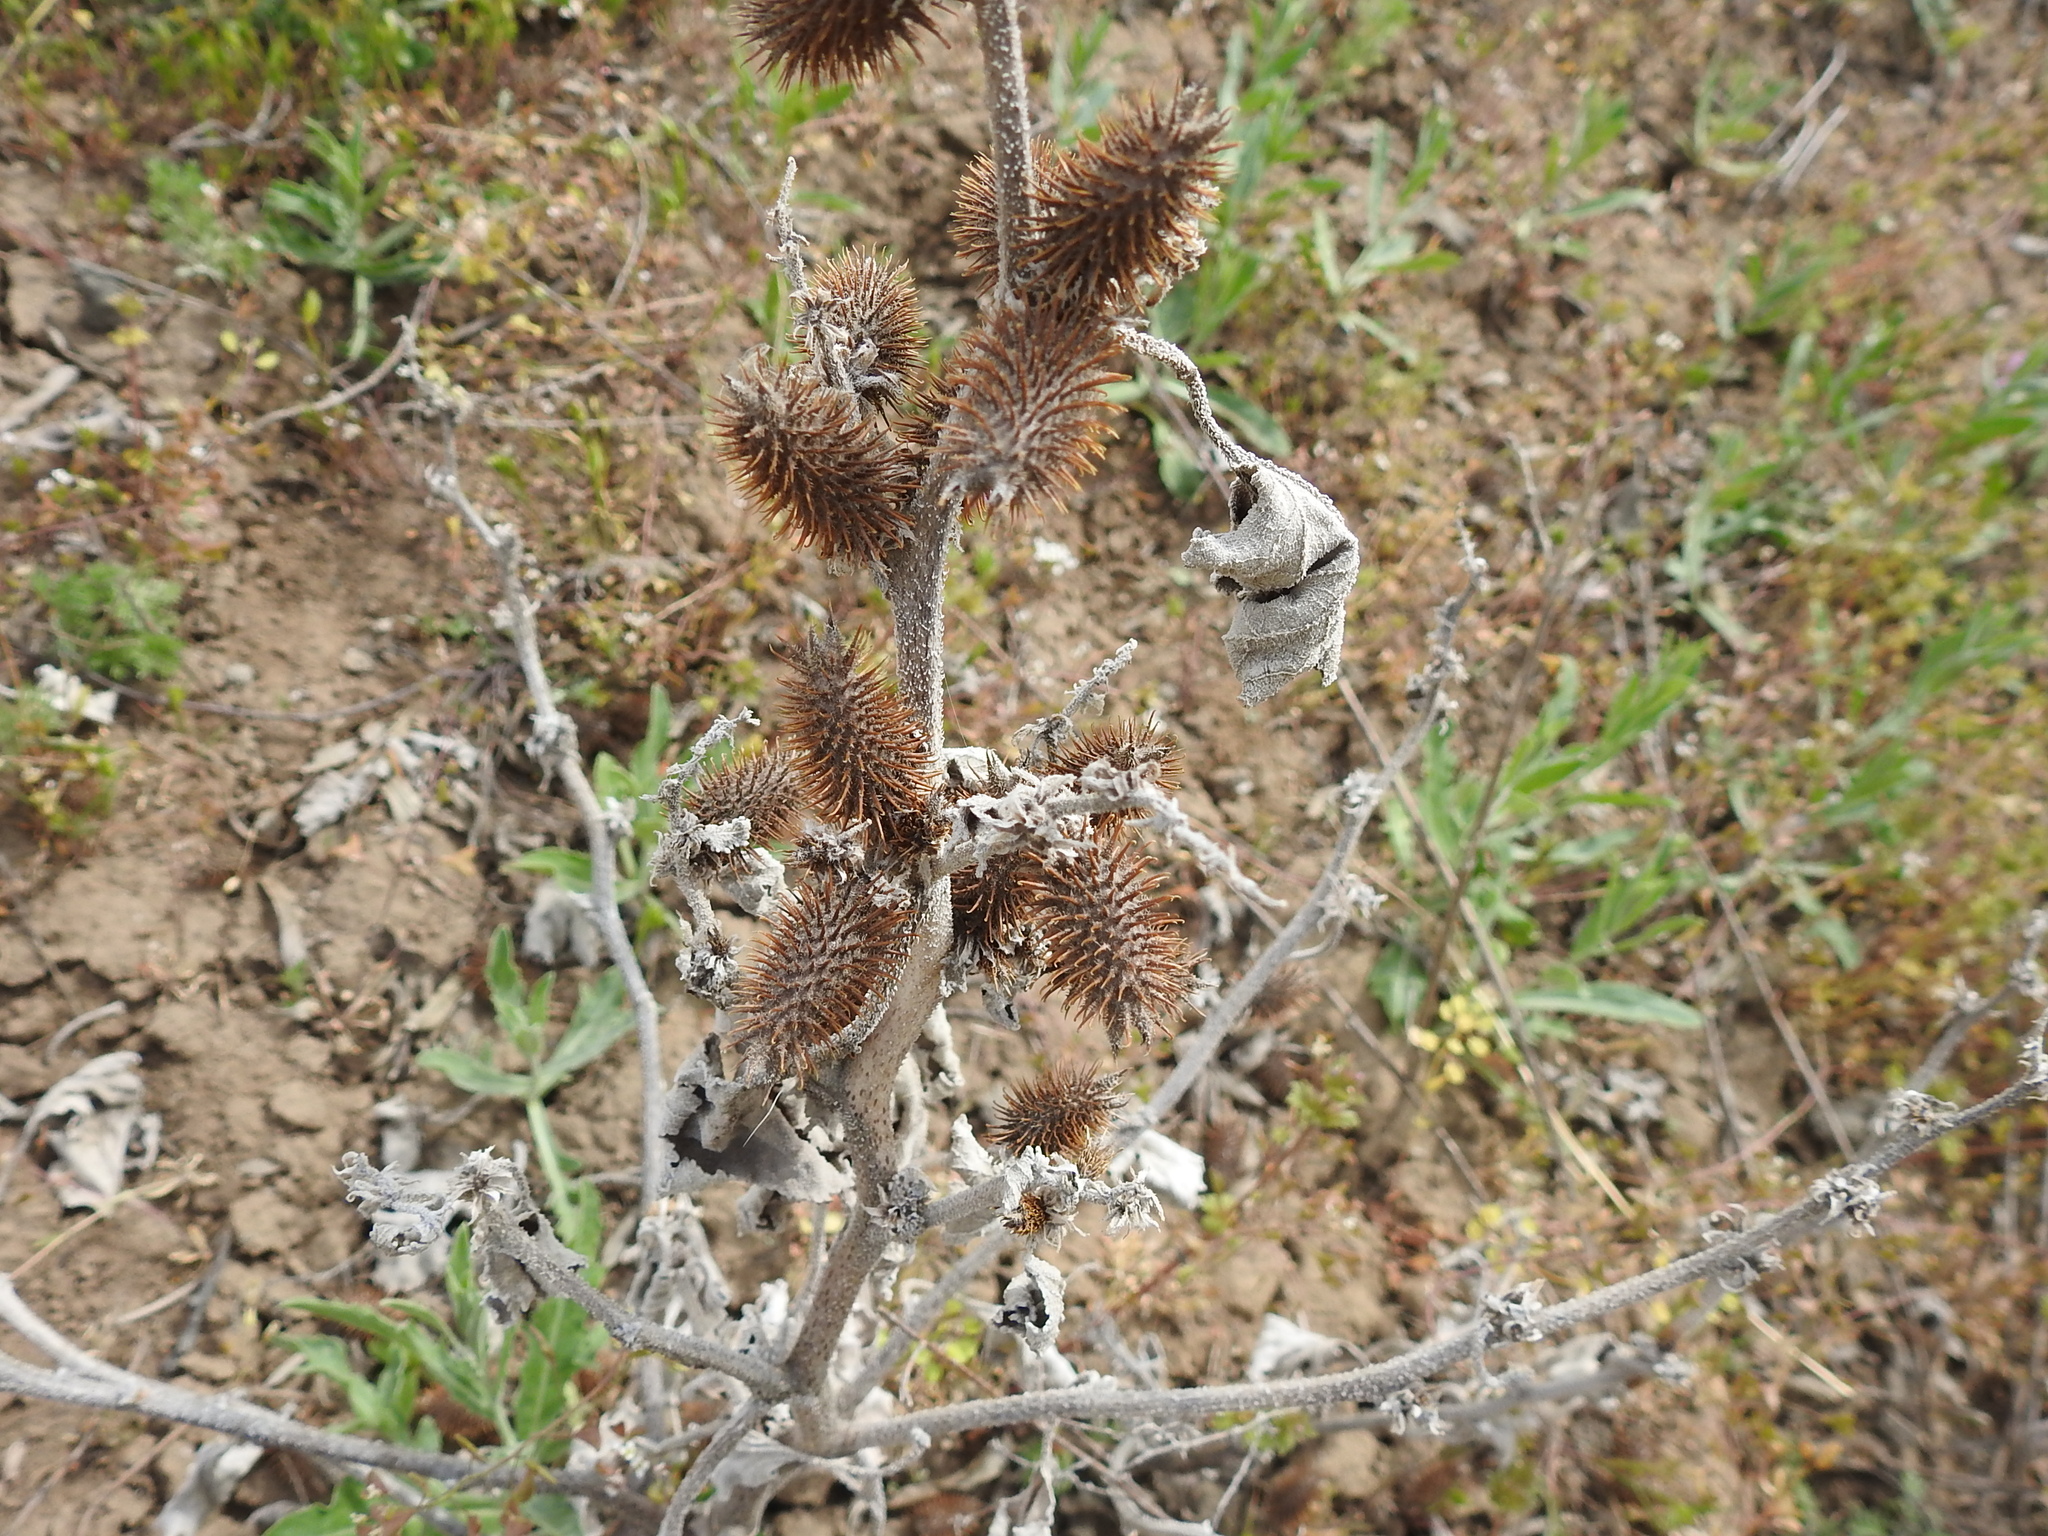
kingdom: Plantae
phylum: Tracheophyta
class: Magnoliopsida
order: Asterales
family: Asteraceae
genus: Xanthium
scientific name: Xanthium orientale
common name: Californian burr
